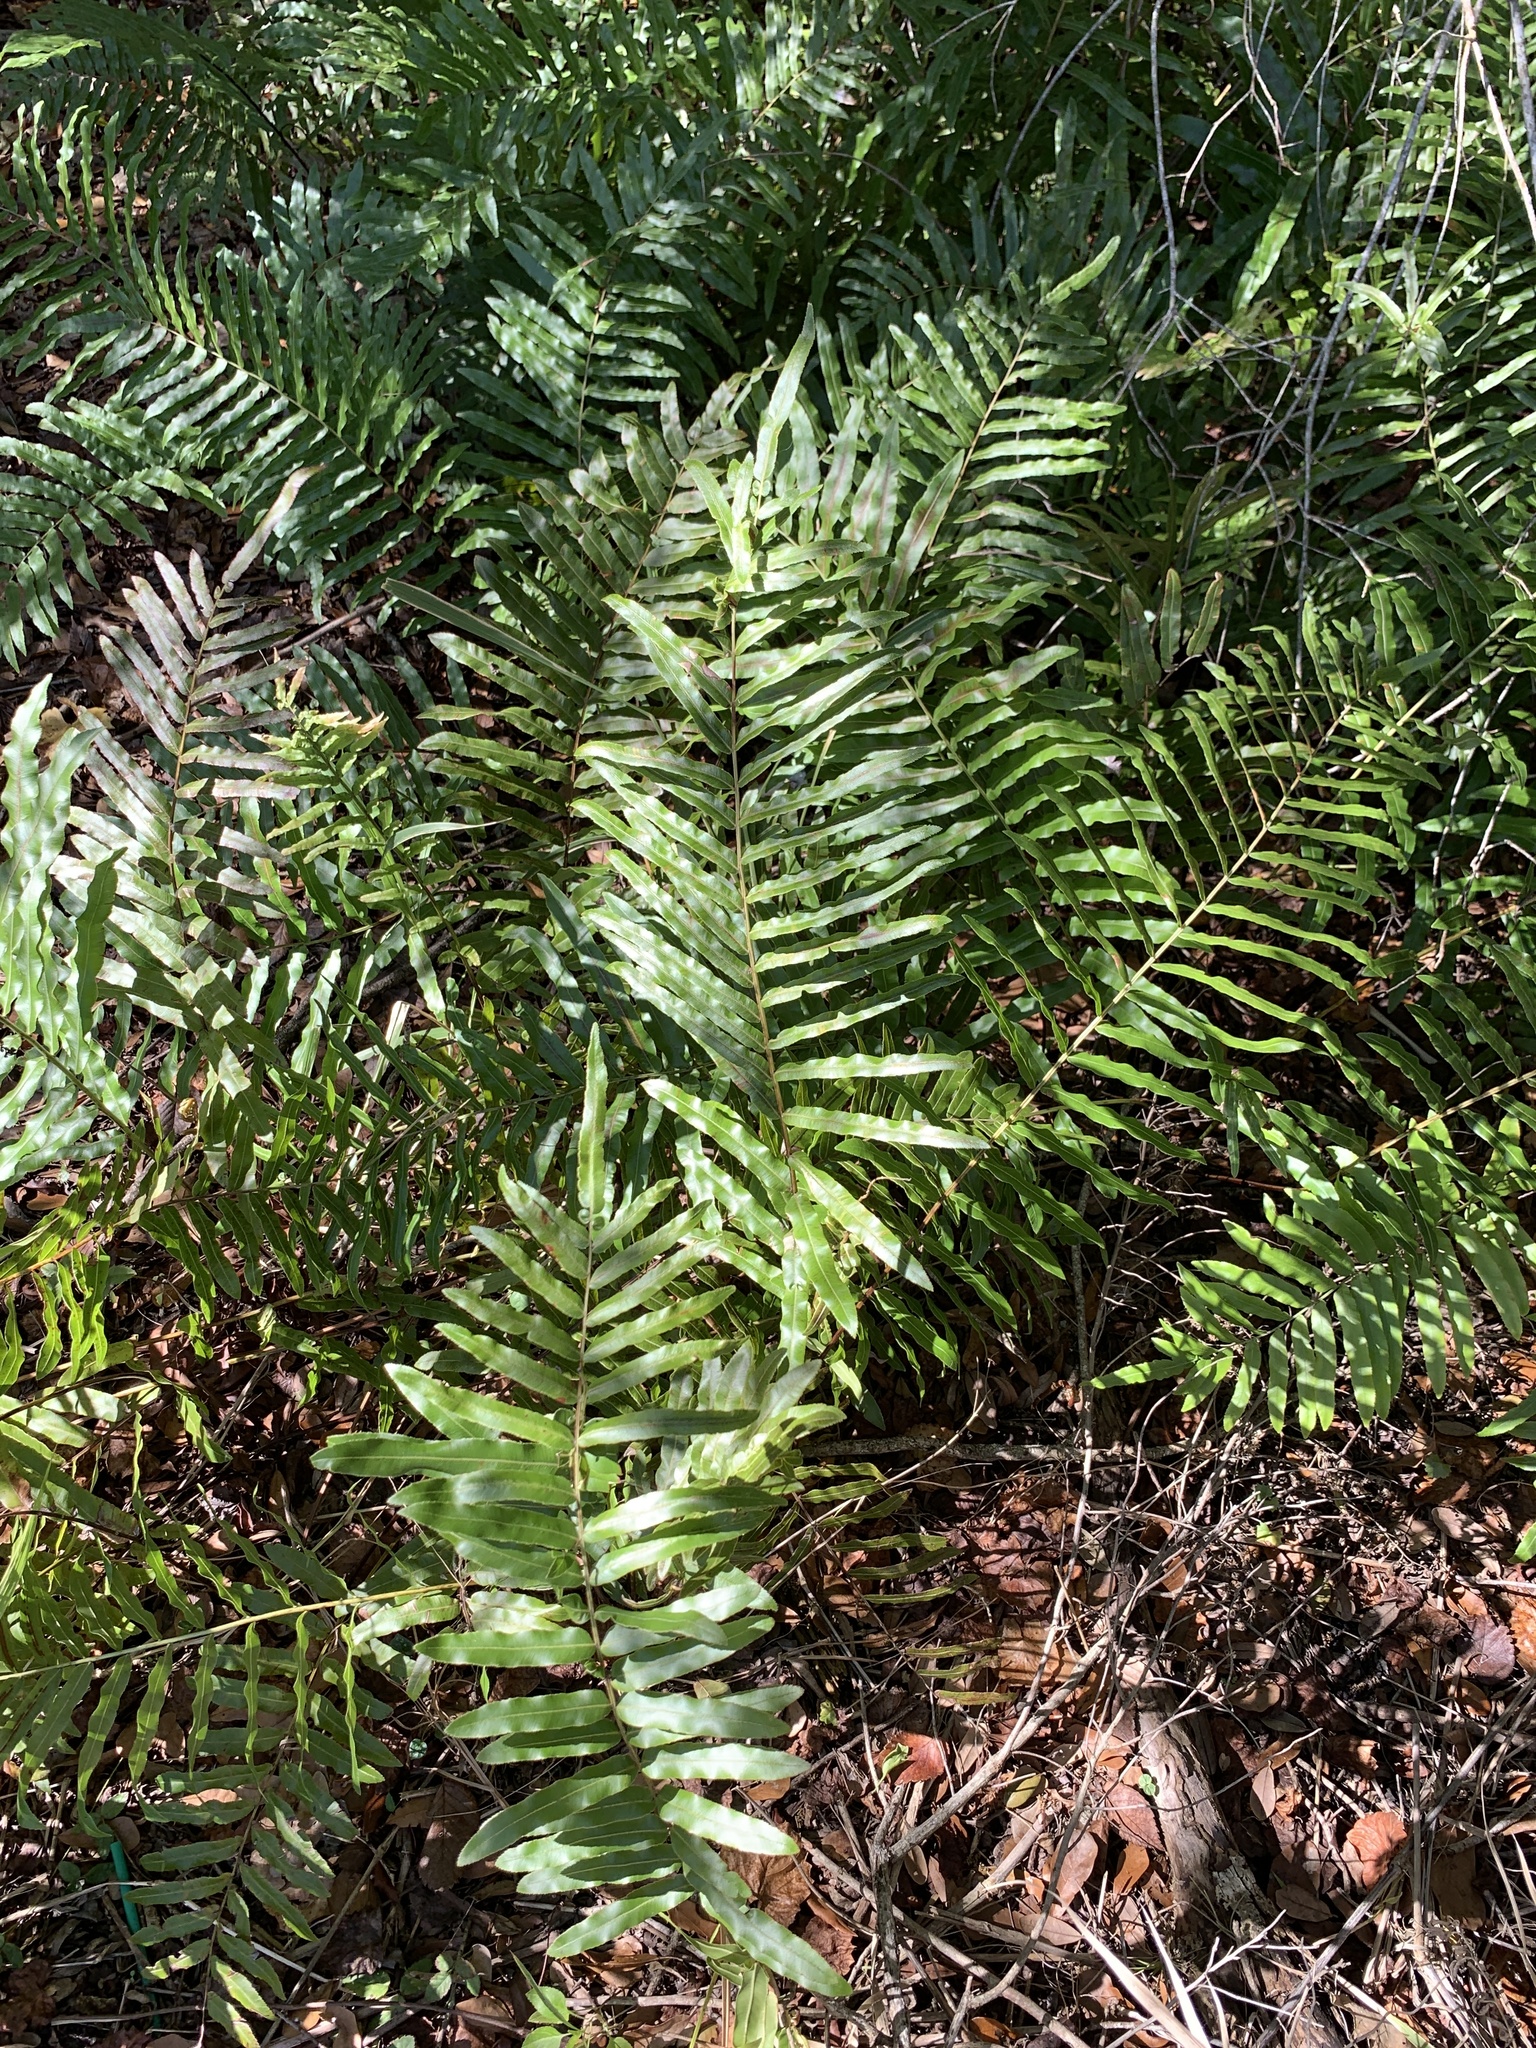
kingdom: Plantae
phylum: Tracheophyta
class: Polypodiopsida
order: Polypodiales
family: Blechnaceae
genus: Telmatoblechnum
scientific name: Telmatoblechnum serrulatum
